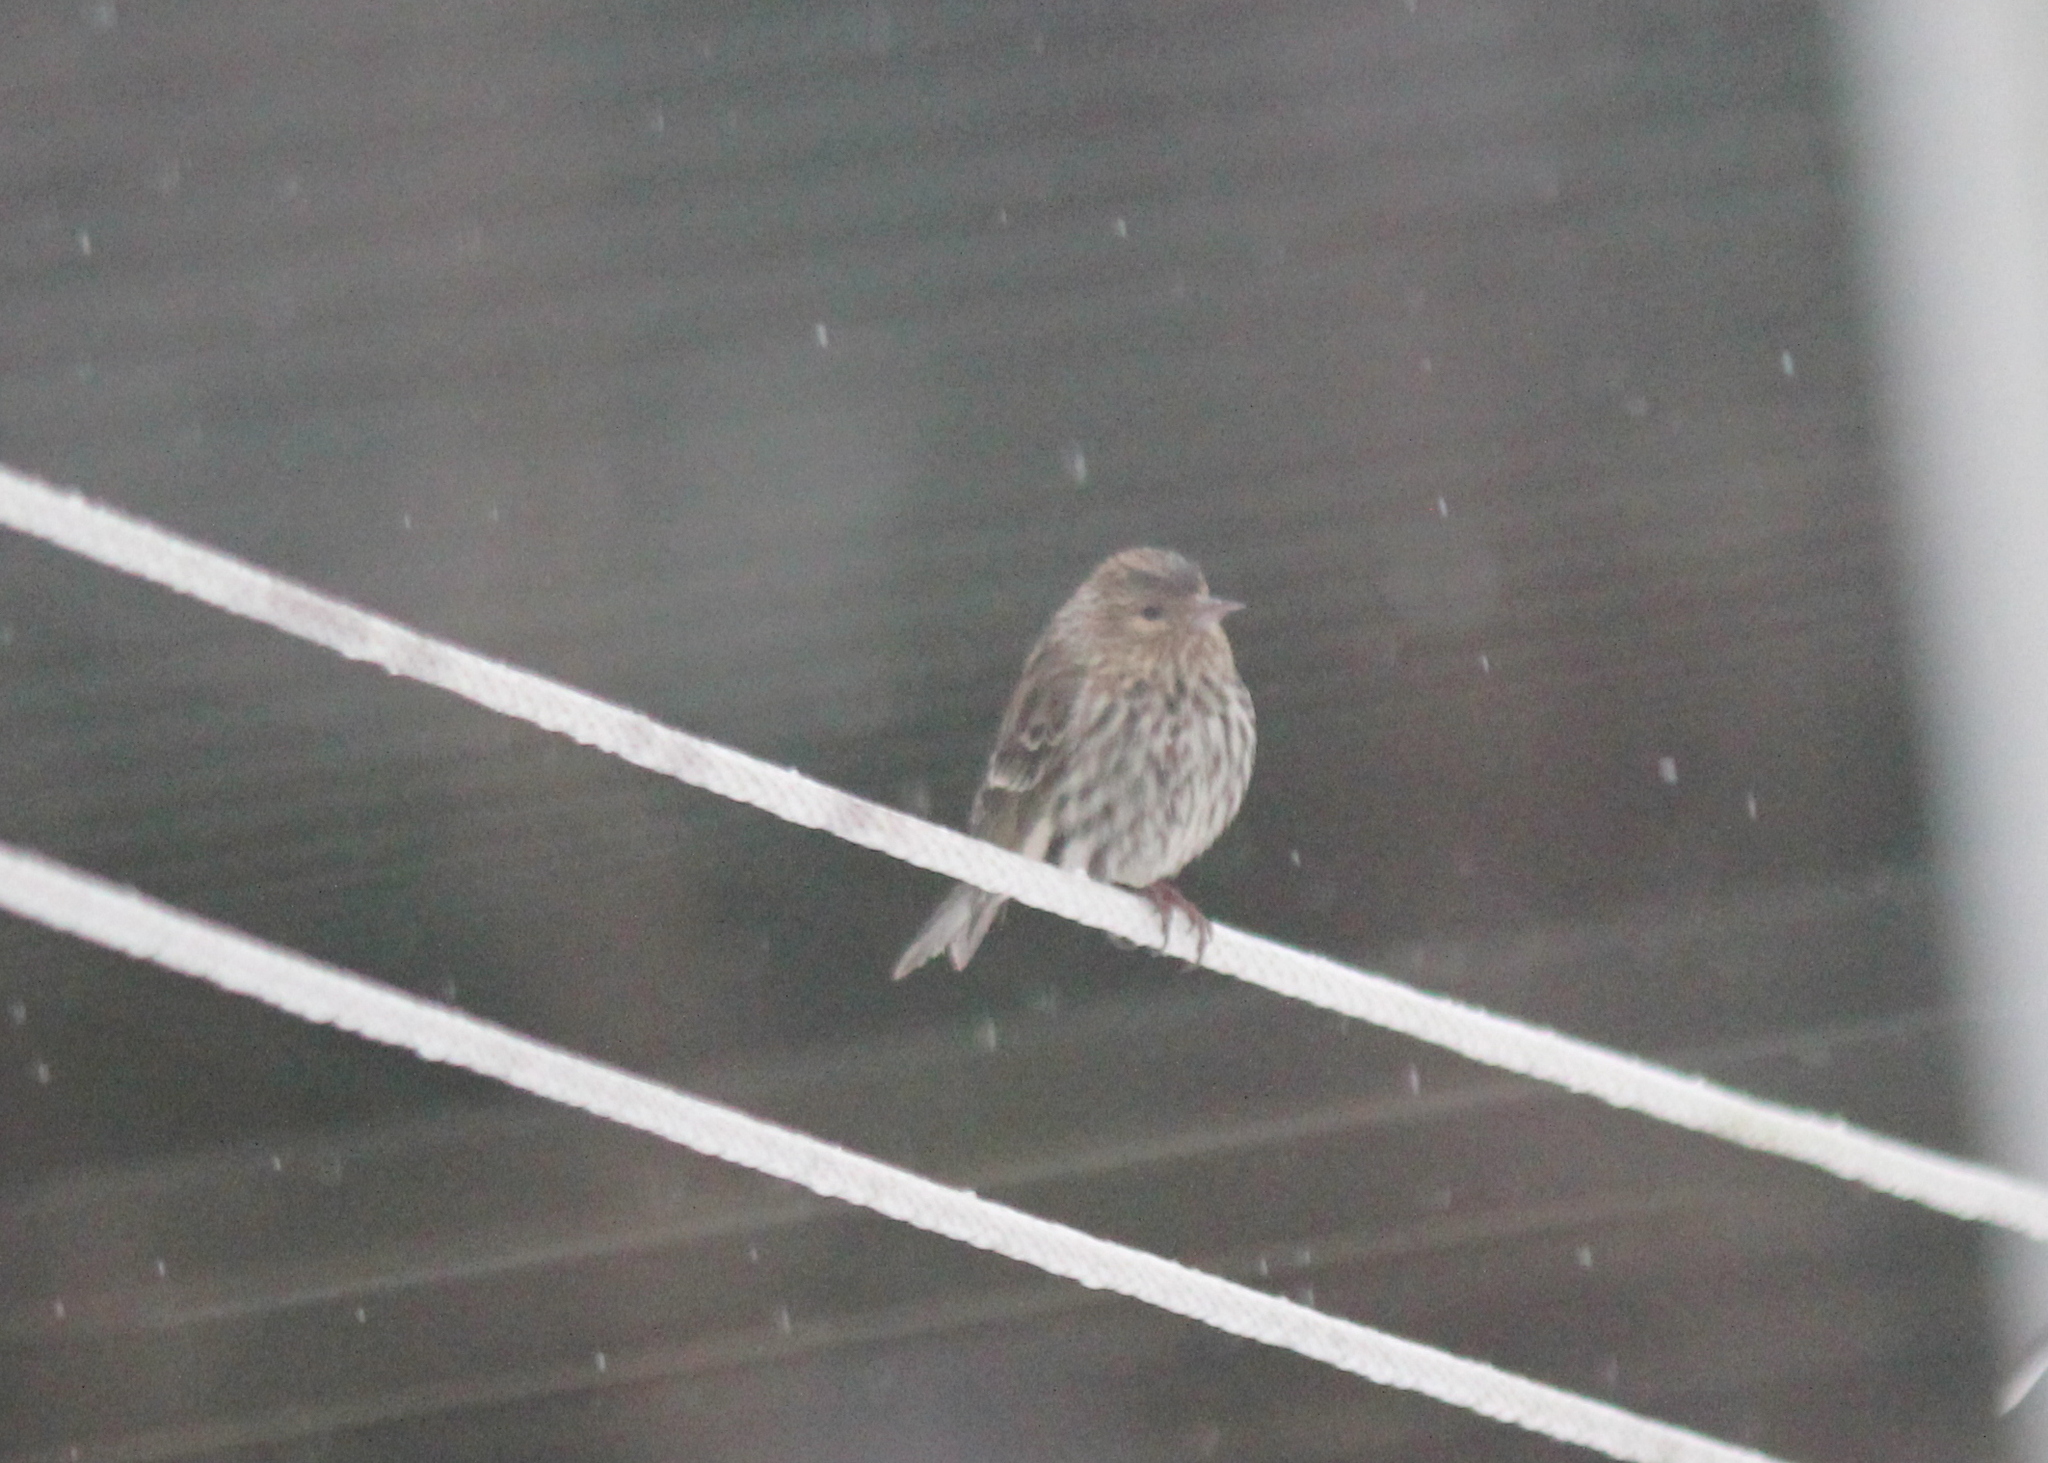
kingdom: Animalia
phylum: Chordata
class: Aves
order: Passeriformes
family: Fringillidae
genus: Spinus
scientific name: Spinus pinus
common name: Pine siskin
